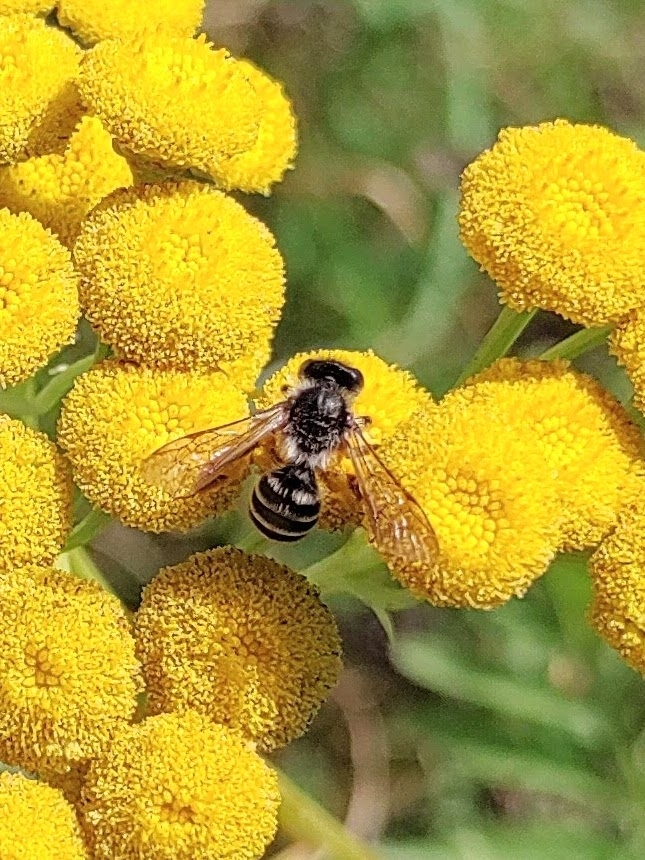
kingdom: Animalia
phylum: Arthropoda
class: Insecta
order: Hymenoptera
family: Andrenidae
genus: Andrena
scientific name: Andrena denticulata
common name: Grey-banded mining bee
